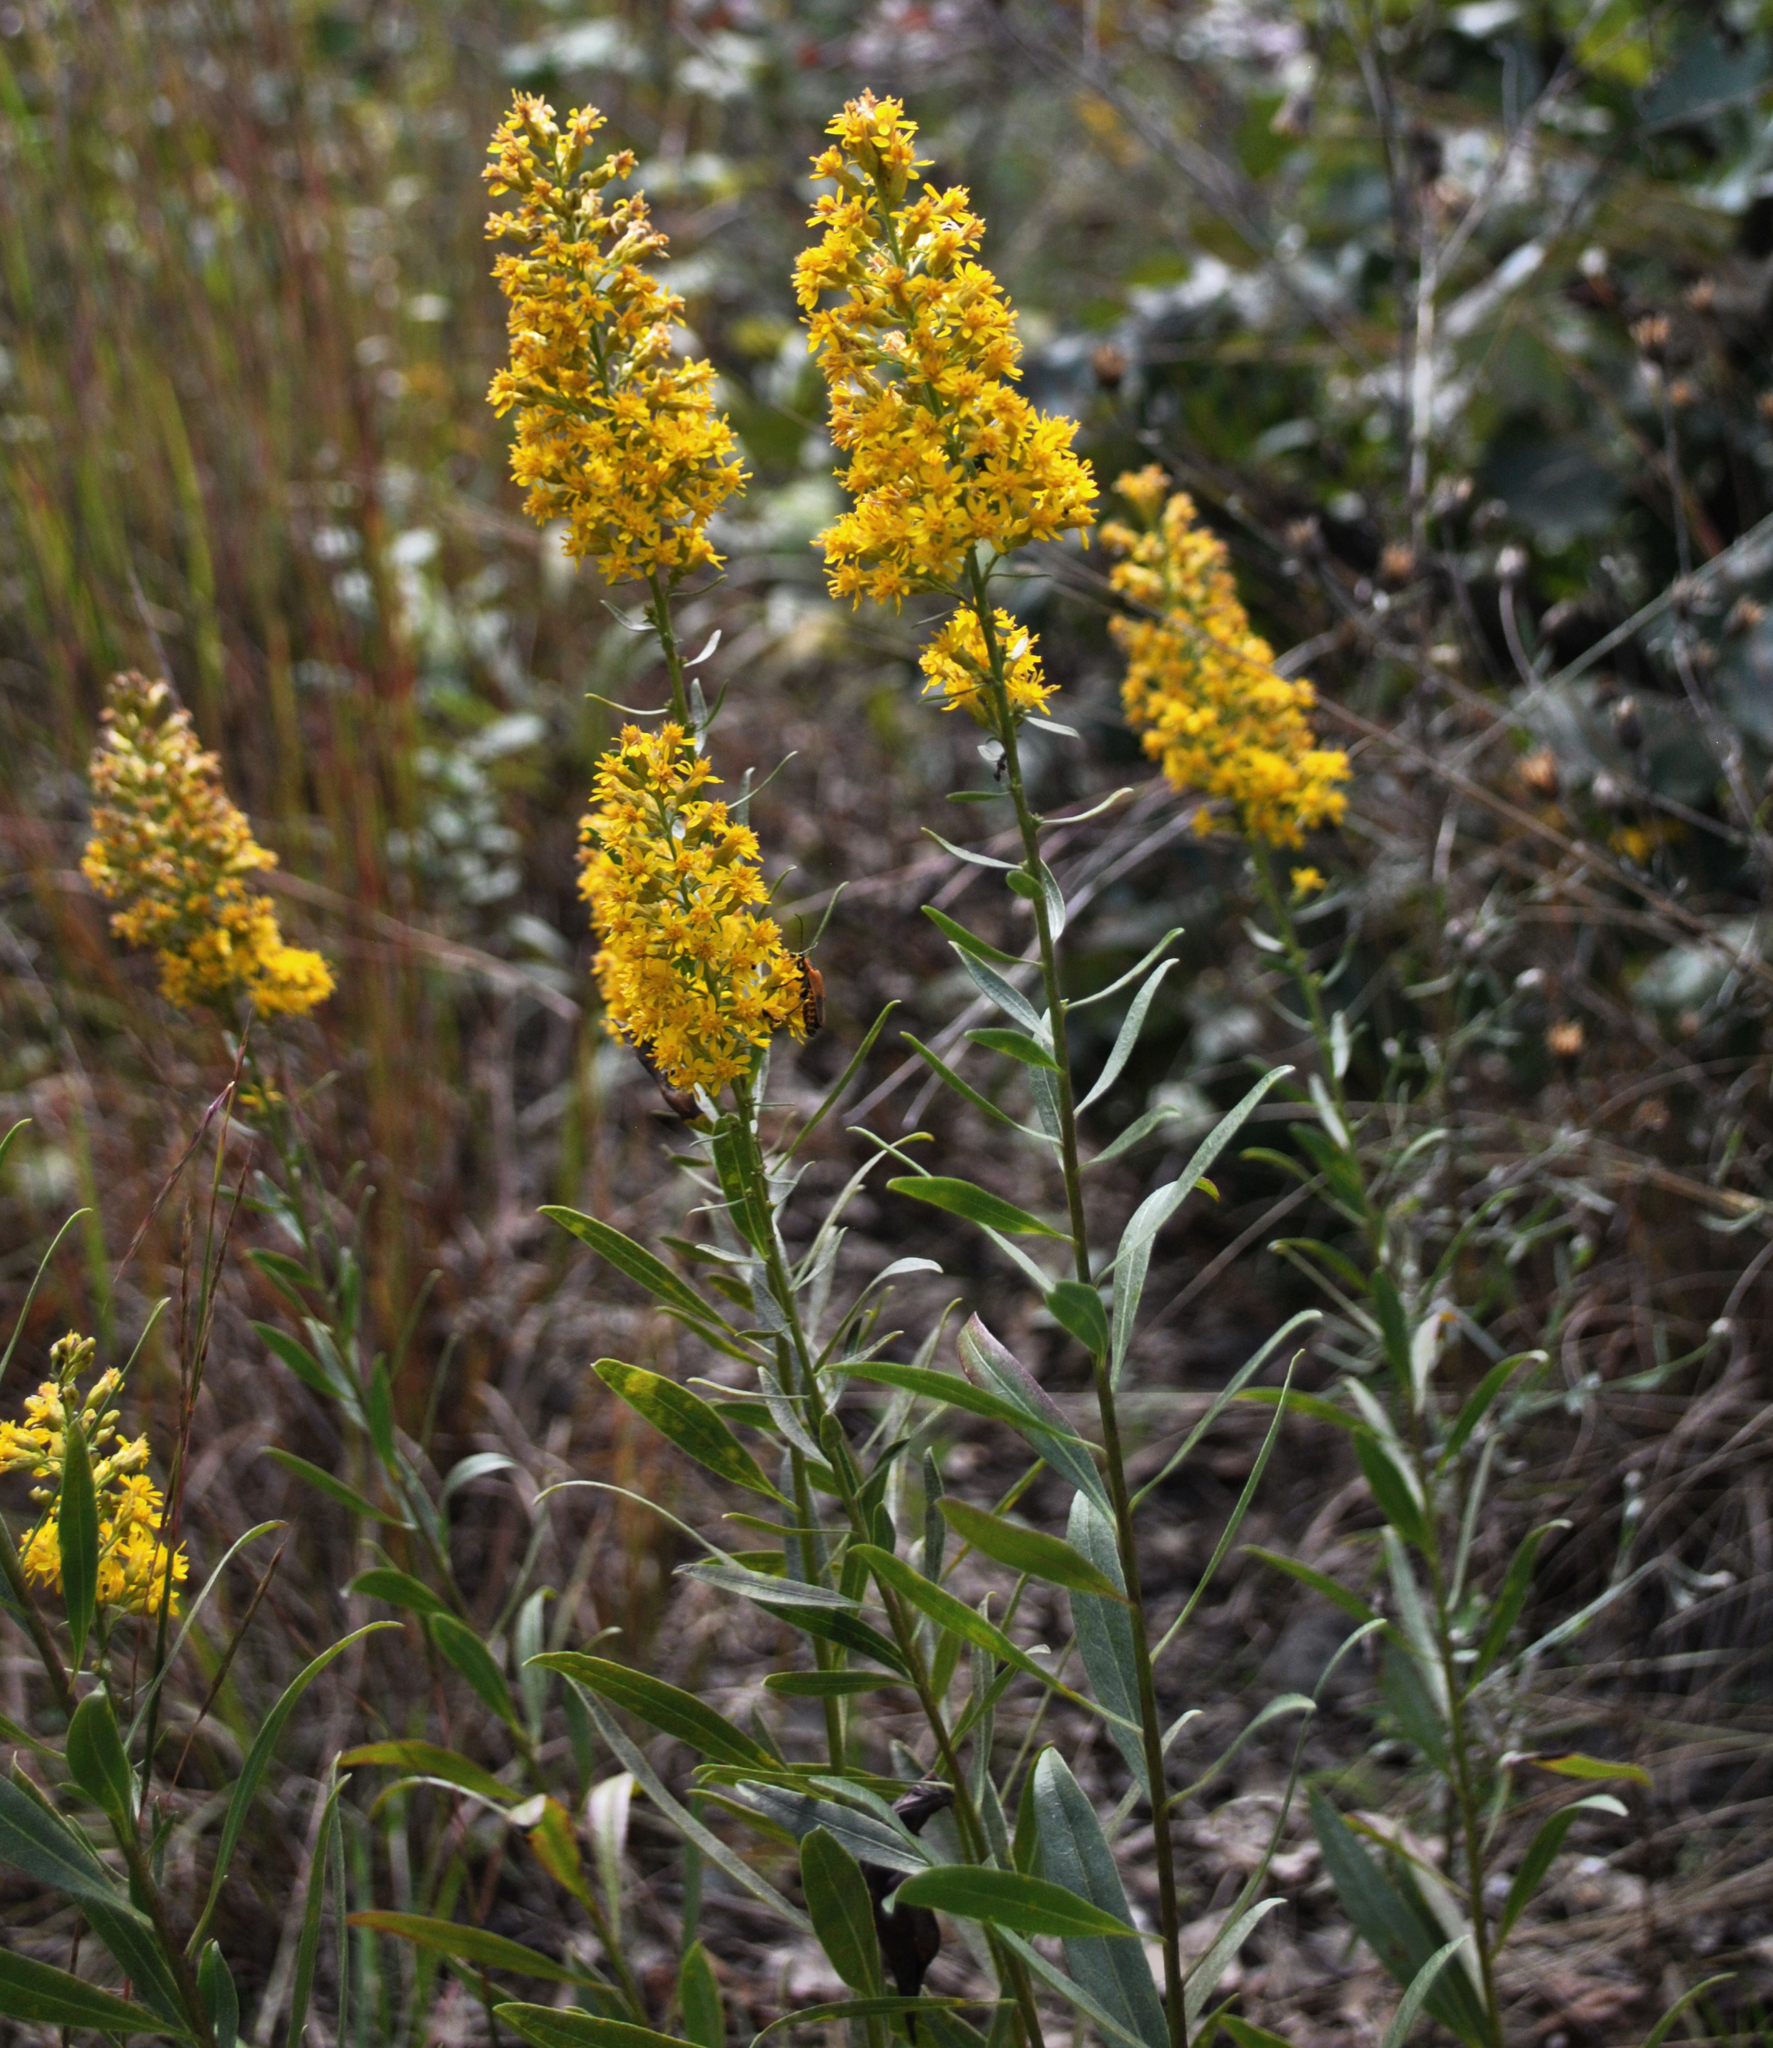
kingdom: Plantae
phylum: Tracheophyta
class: Magnoliopsida
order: Asterales
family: Asteraceae
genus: Solidago
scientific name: Solidago rigidiuscula
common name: Stiff-leaved showy goldenrod
